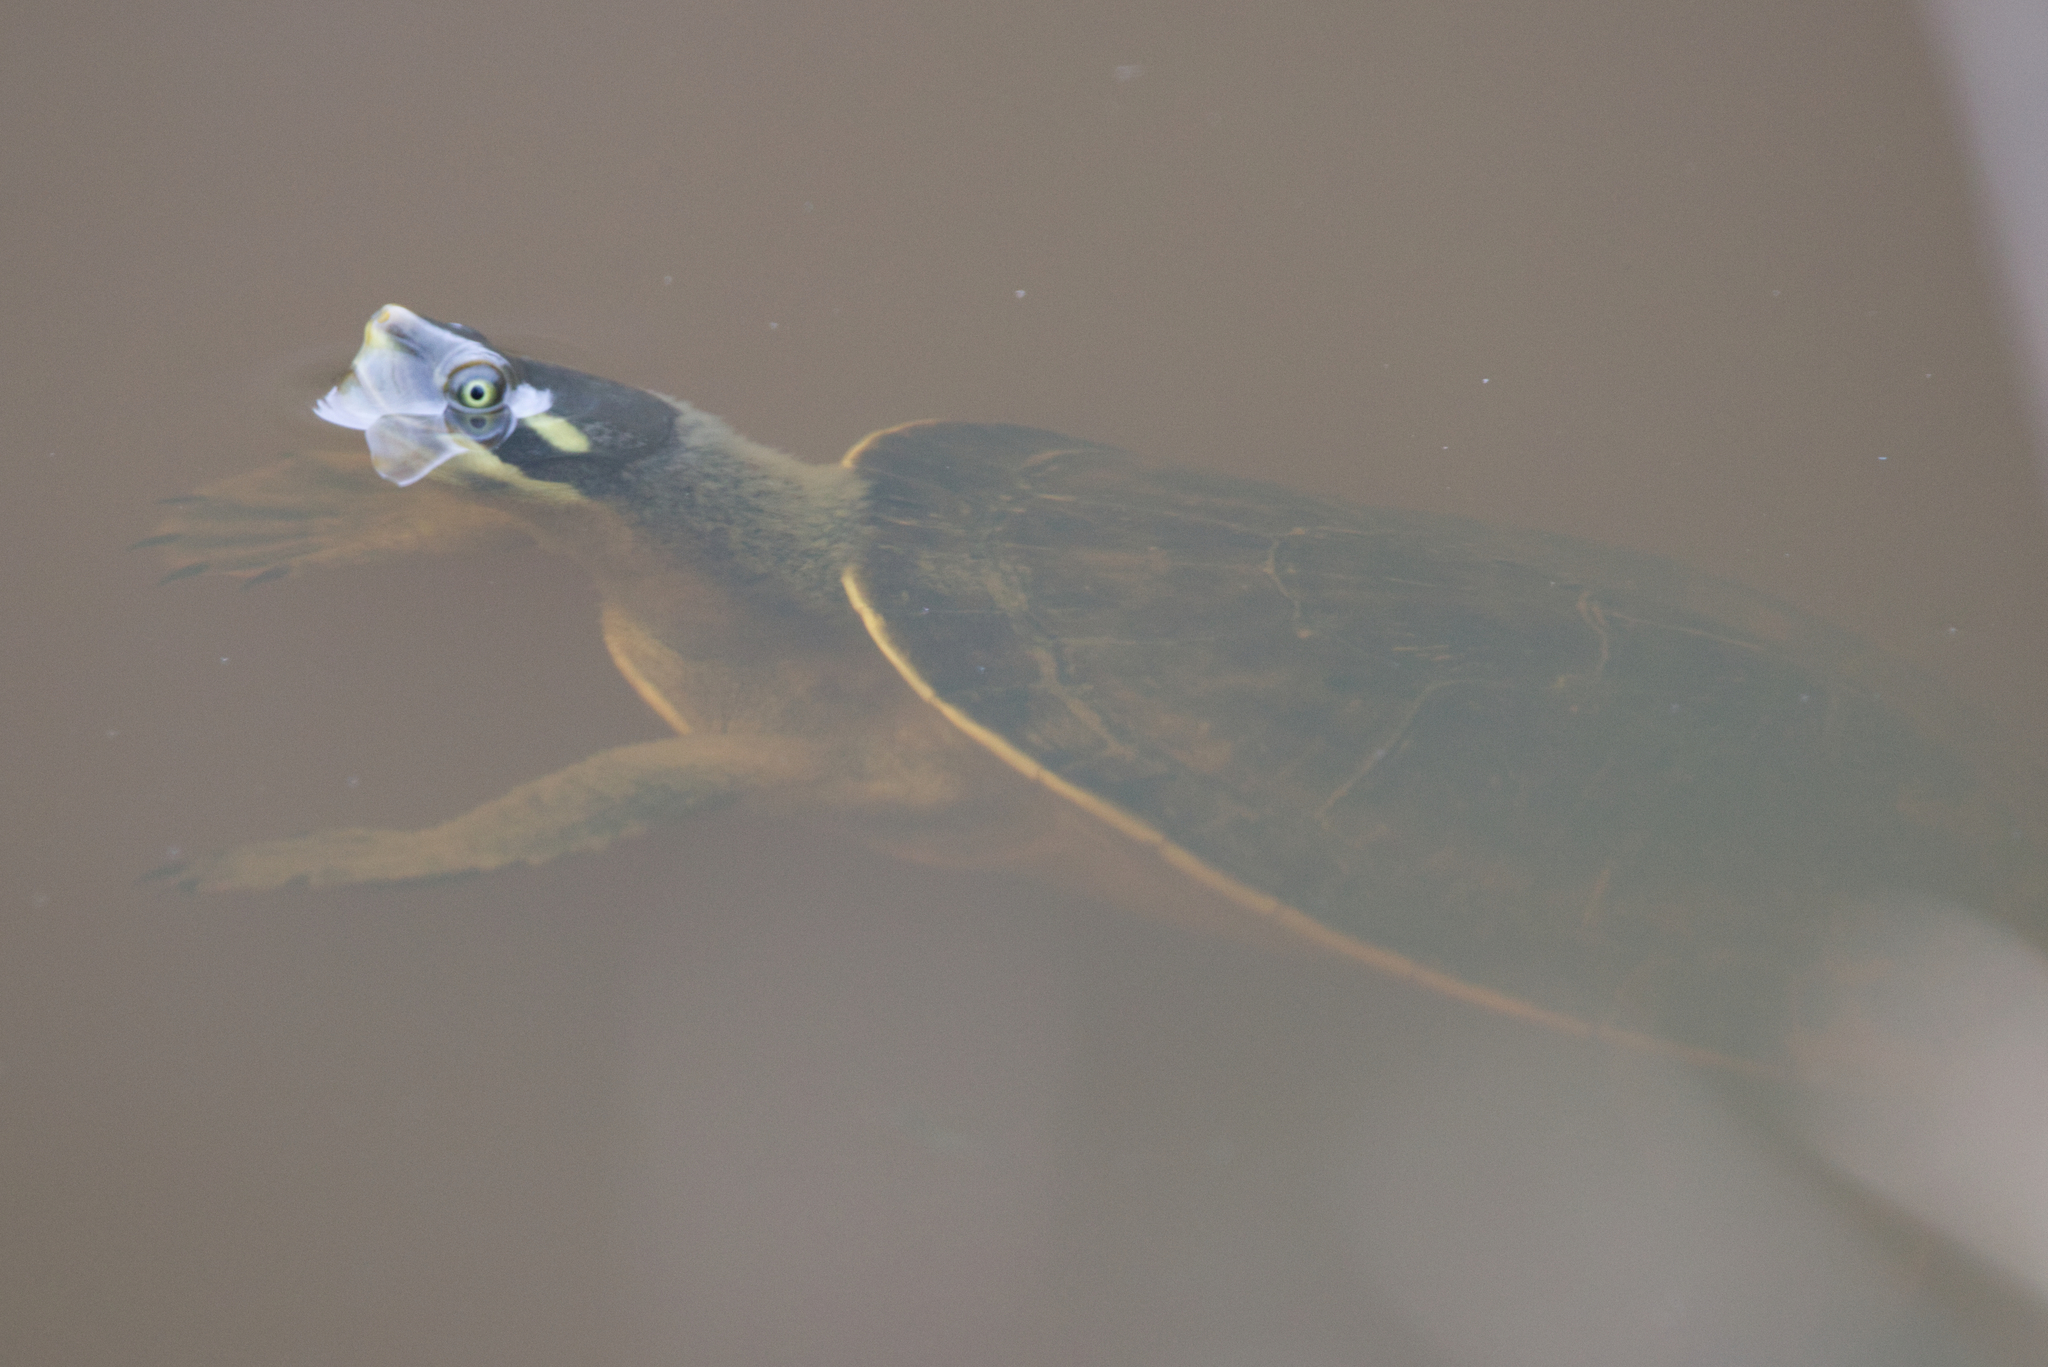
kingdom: Animalia
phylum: Chordata
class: Testudines
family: Chelidae
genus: Emydura
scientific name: Emydura macquarii
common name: Murray river turtle
